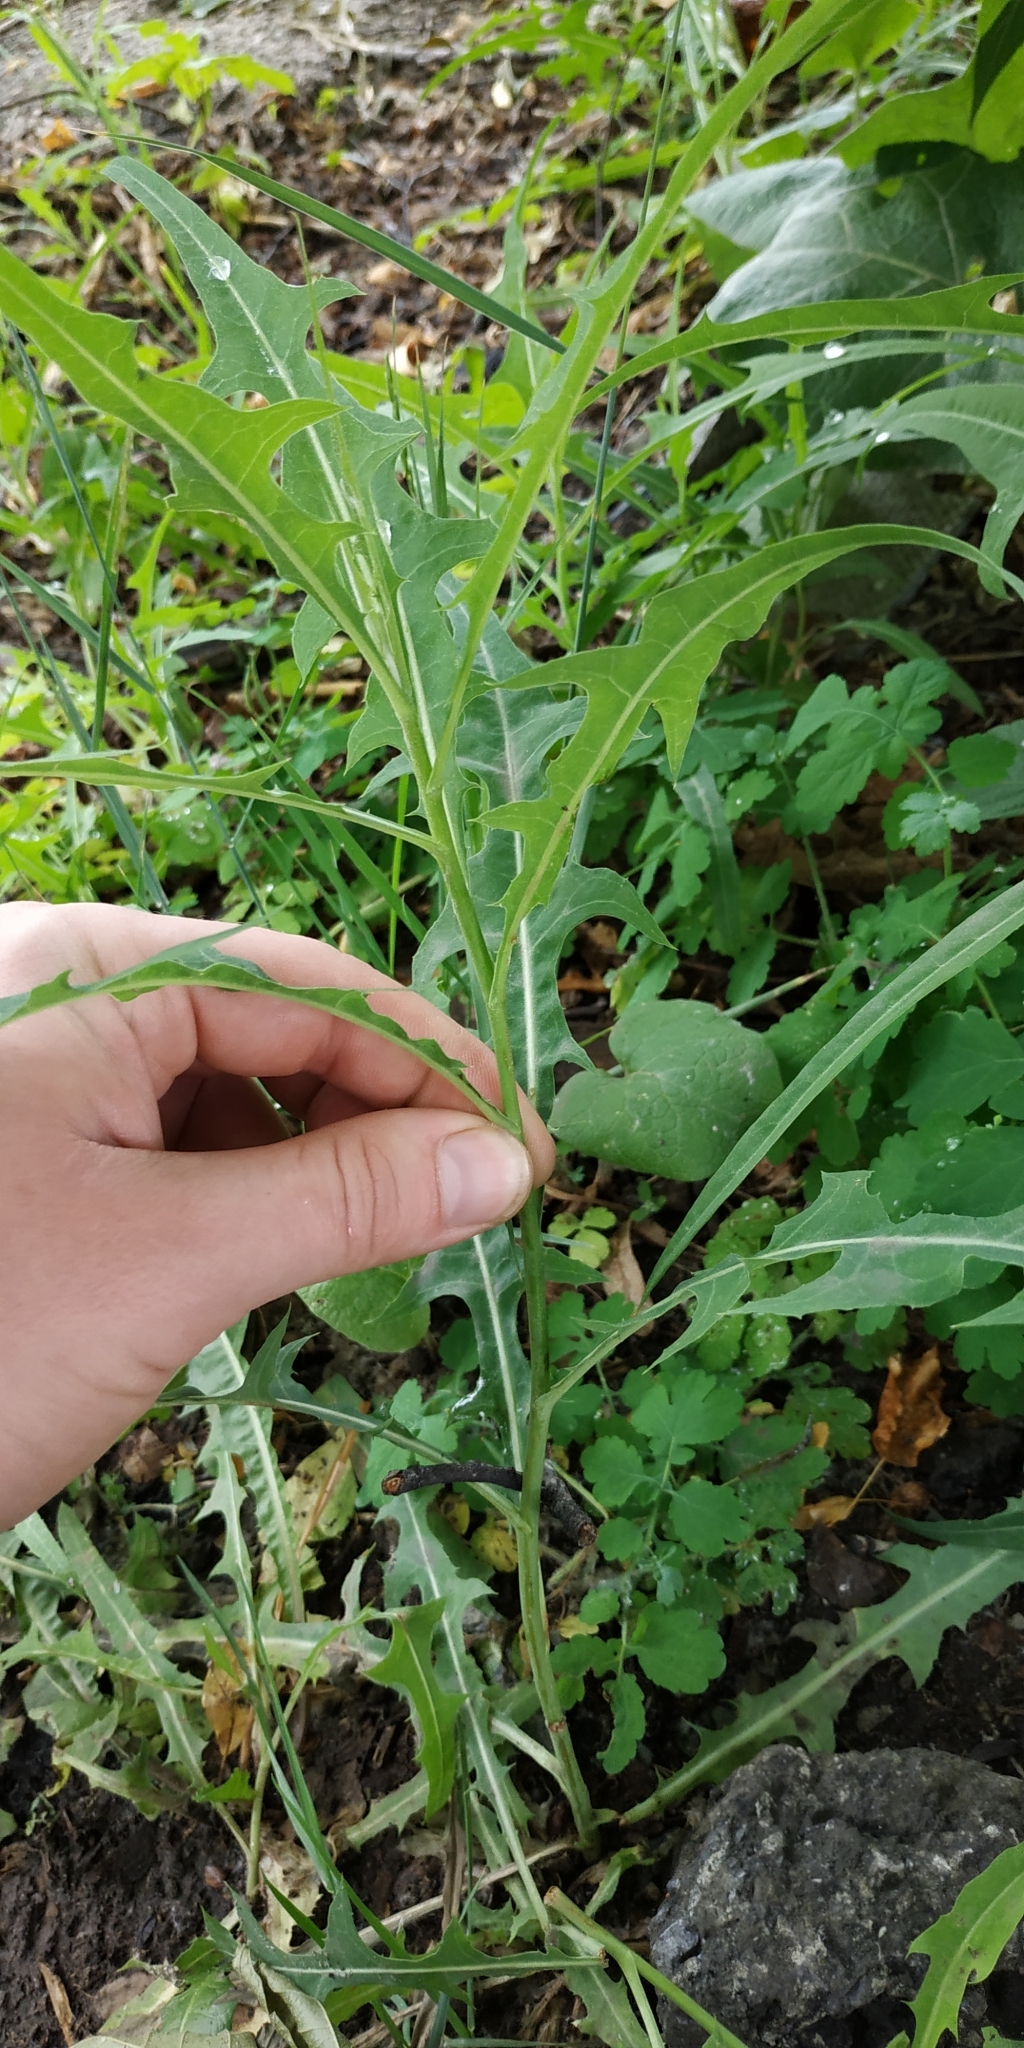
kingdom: Plantae
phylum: Tracheophyta
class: Magnoliopsida
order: Asterales
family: Asteraceae
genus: Lactuca
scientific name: Lactuca tatarica
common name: Blue lettuce
